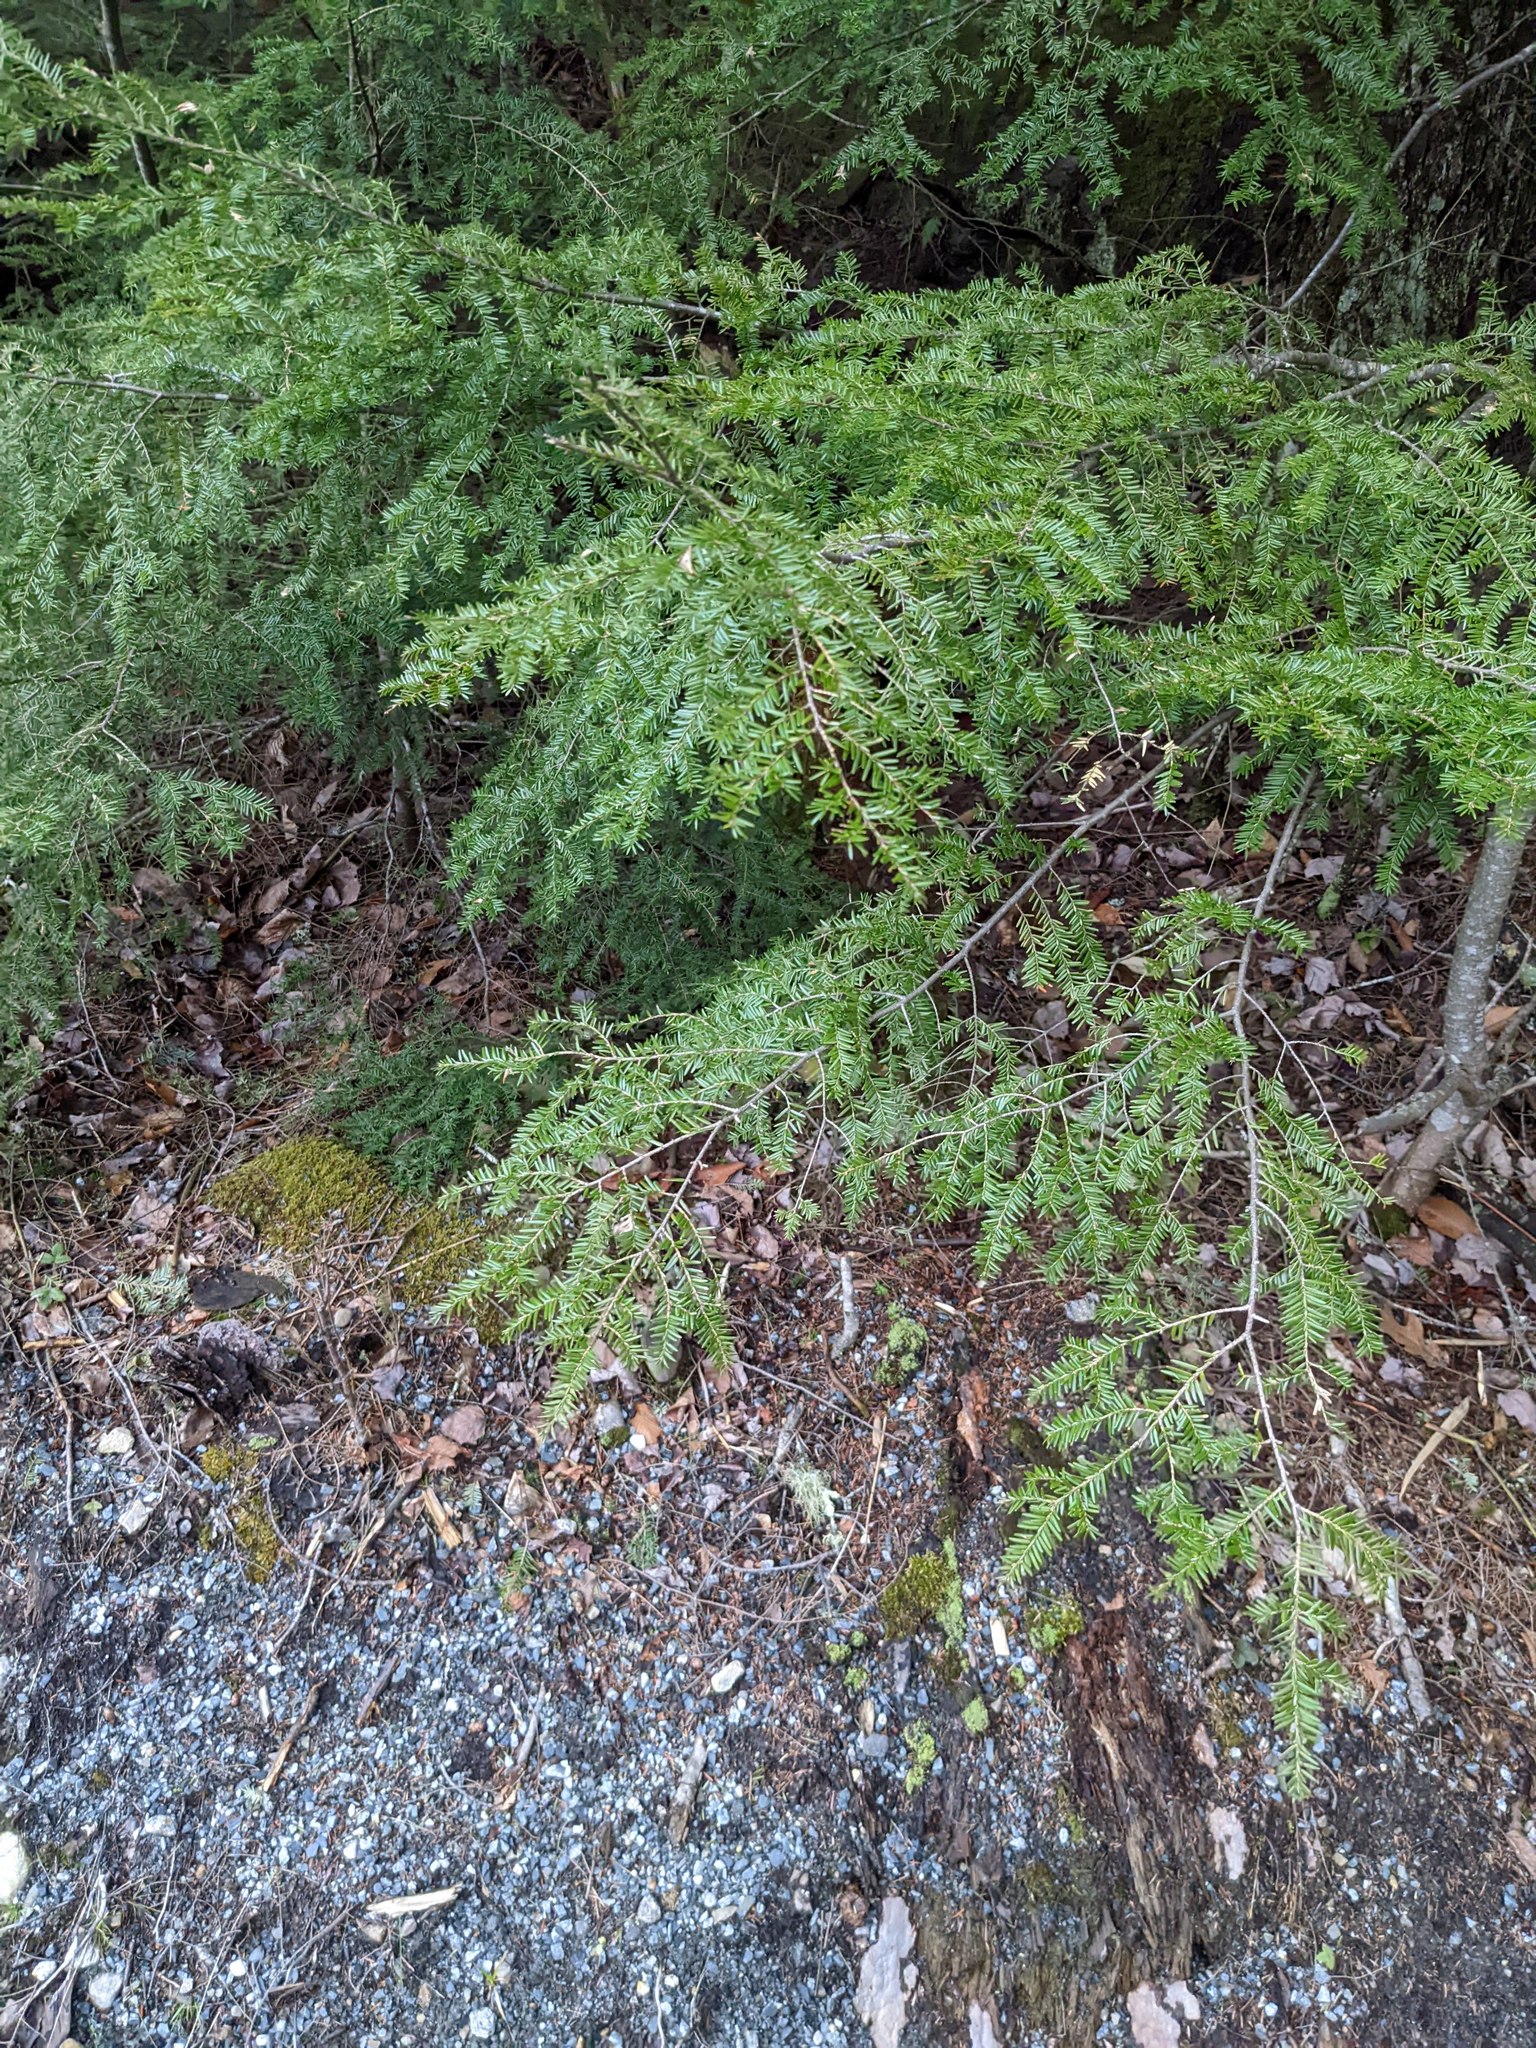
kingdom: Plantae
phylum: Tracheophyta
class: Pinopsida
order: Pinales
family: Pinaceae
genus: Tsuga
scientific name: Tsuga canadensis
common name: Eastern hemlock
